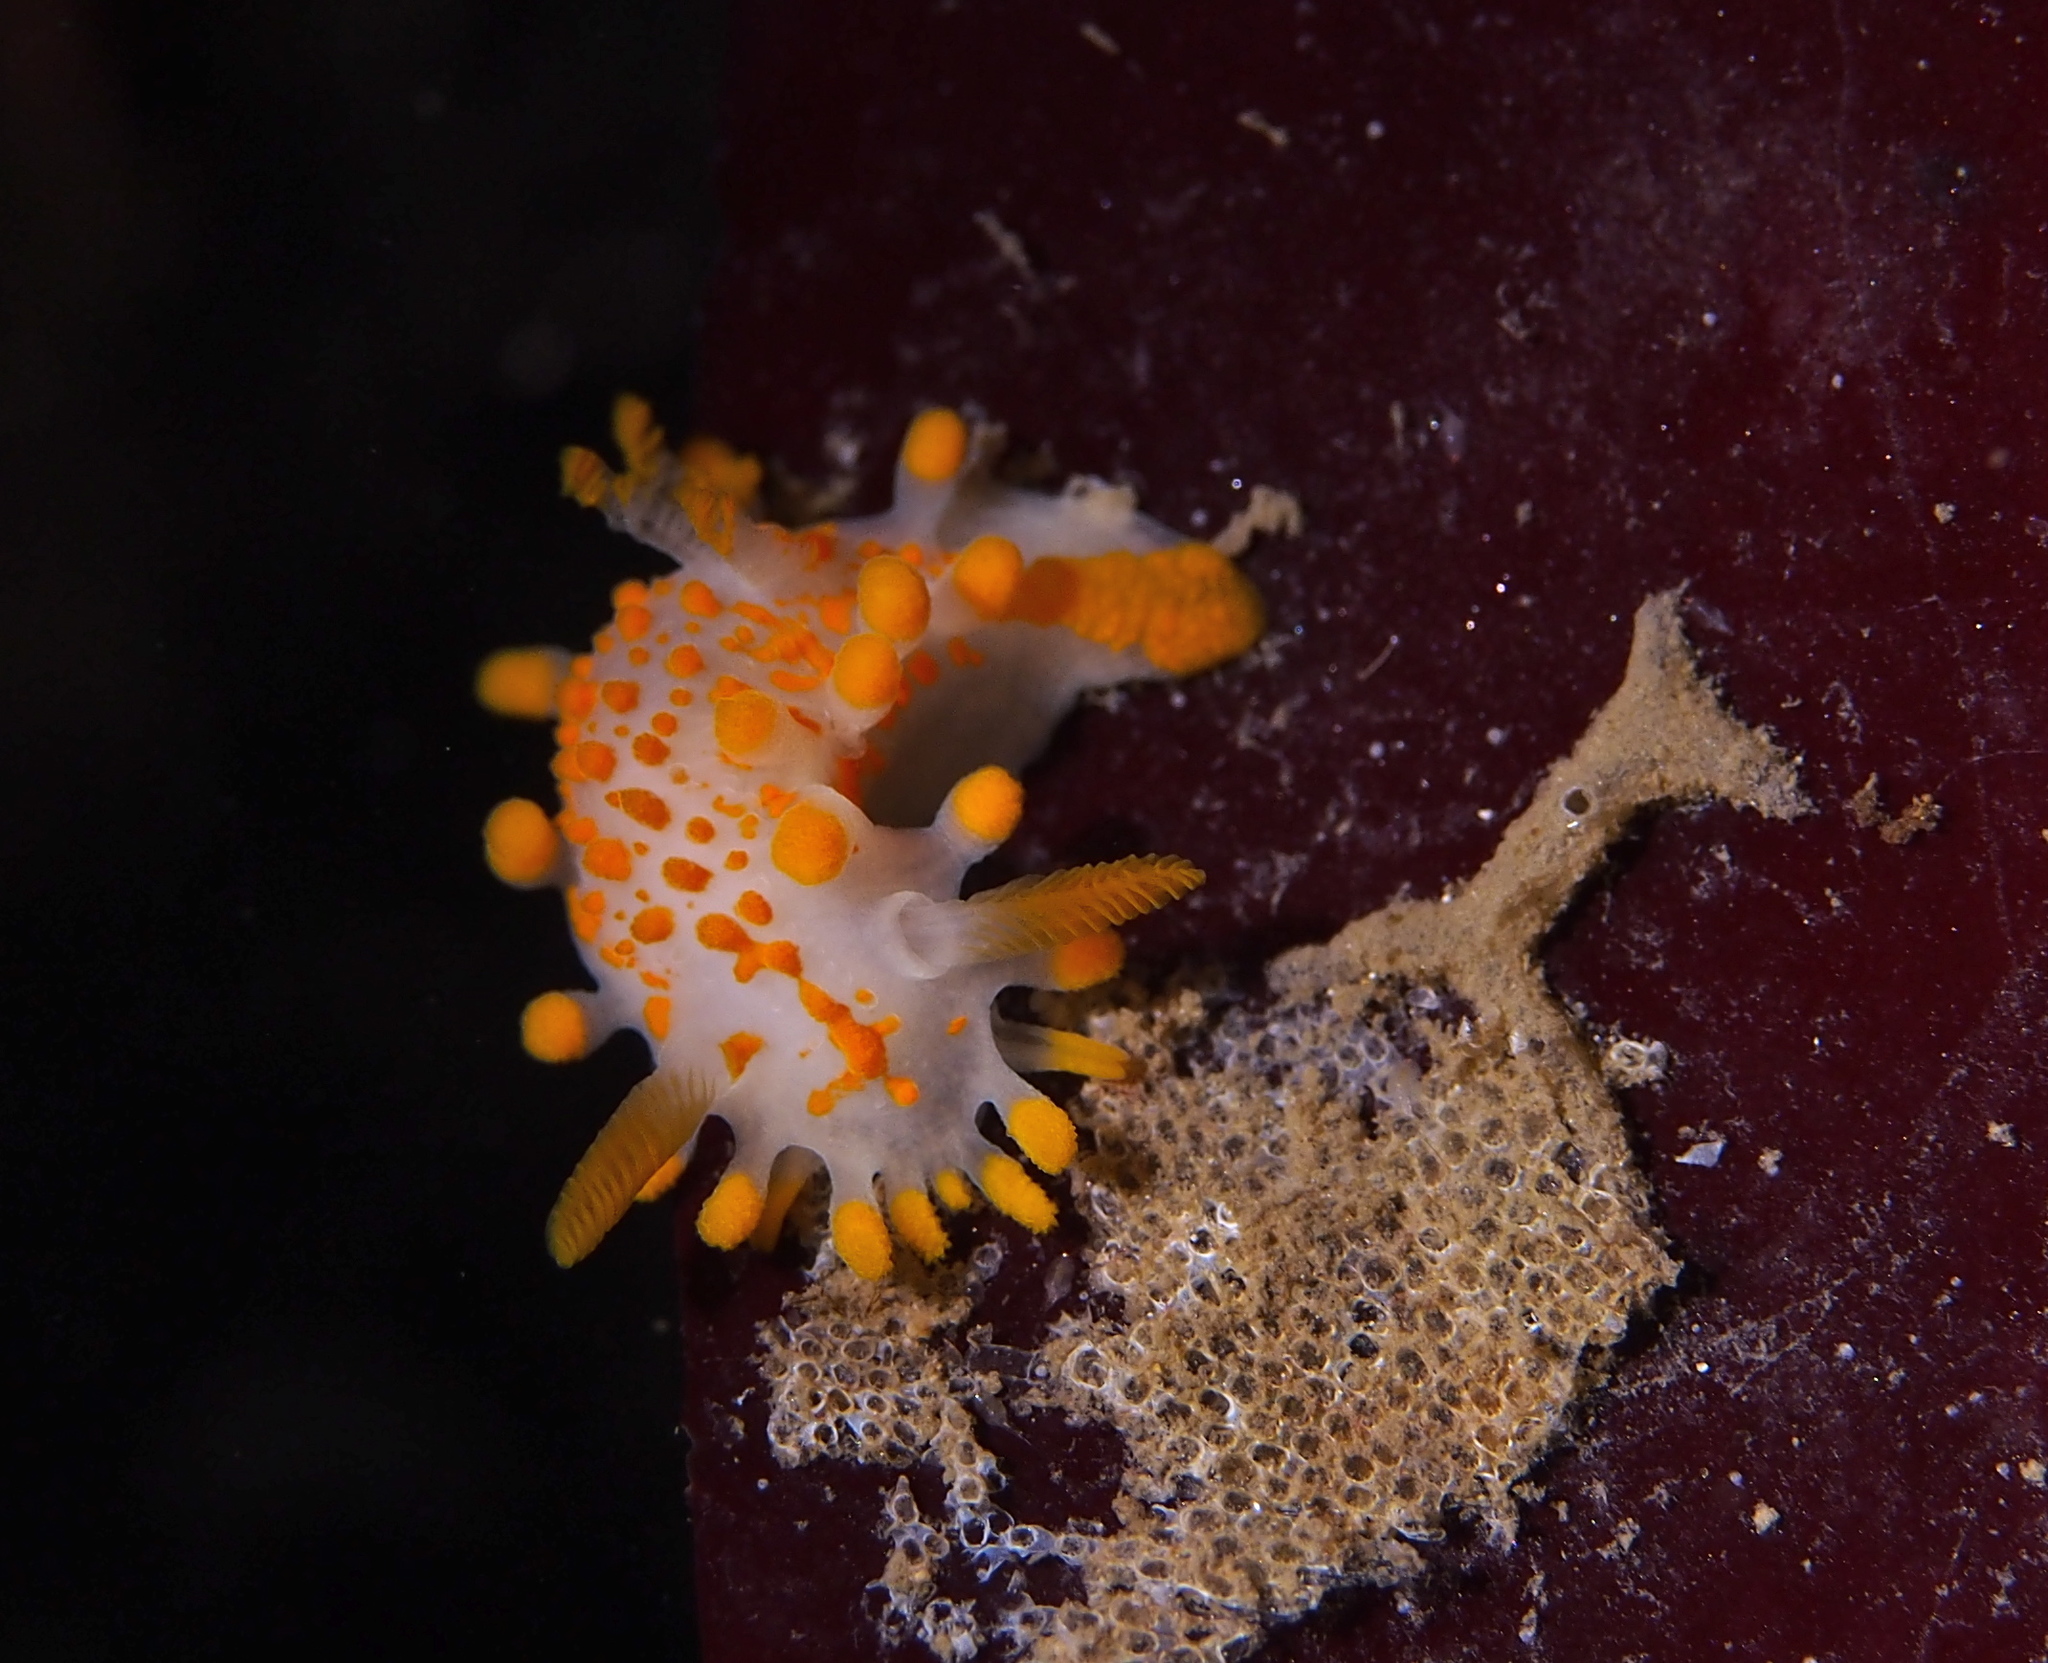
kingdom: Animalia
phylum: Mollusca
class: Gastropoda
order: Nudibranchia
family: Polyceridae
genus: Limacia
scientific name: Limacia clavigera
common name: Orange-clubbed sea slug
